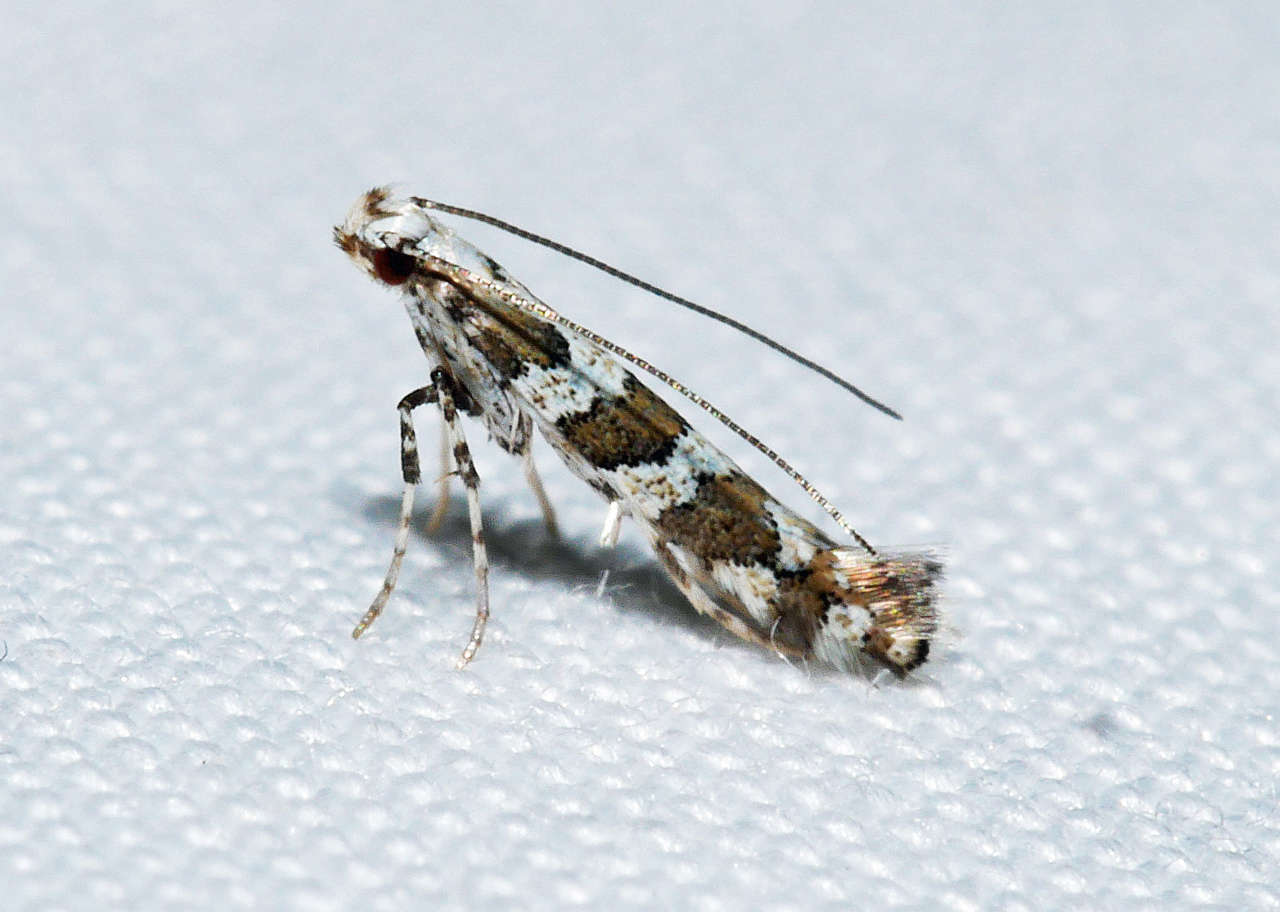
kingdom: Animalia
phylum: Arthropoda
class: Insecta
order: Lepidoptera
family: Gracillariidae
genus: Acrocercops
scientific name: Acrocercops irrorata
